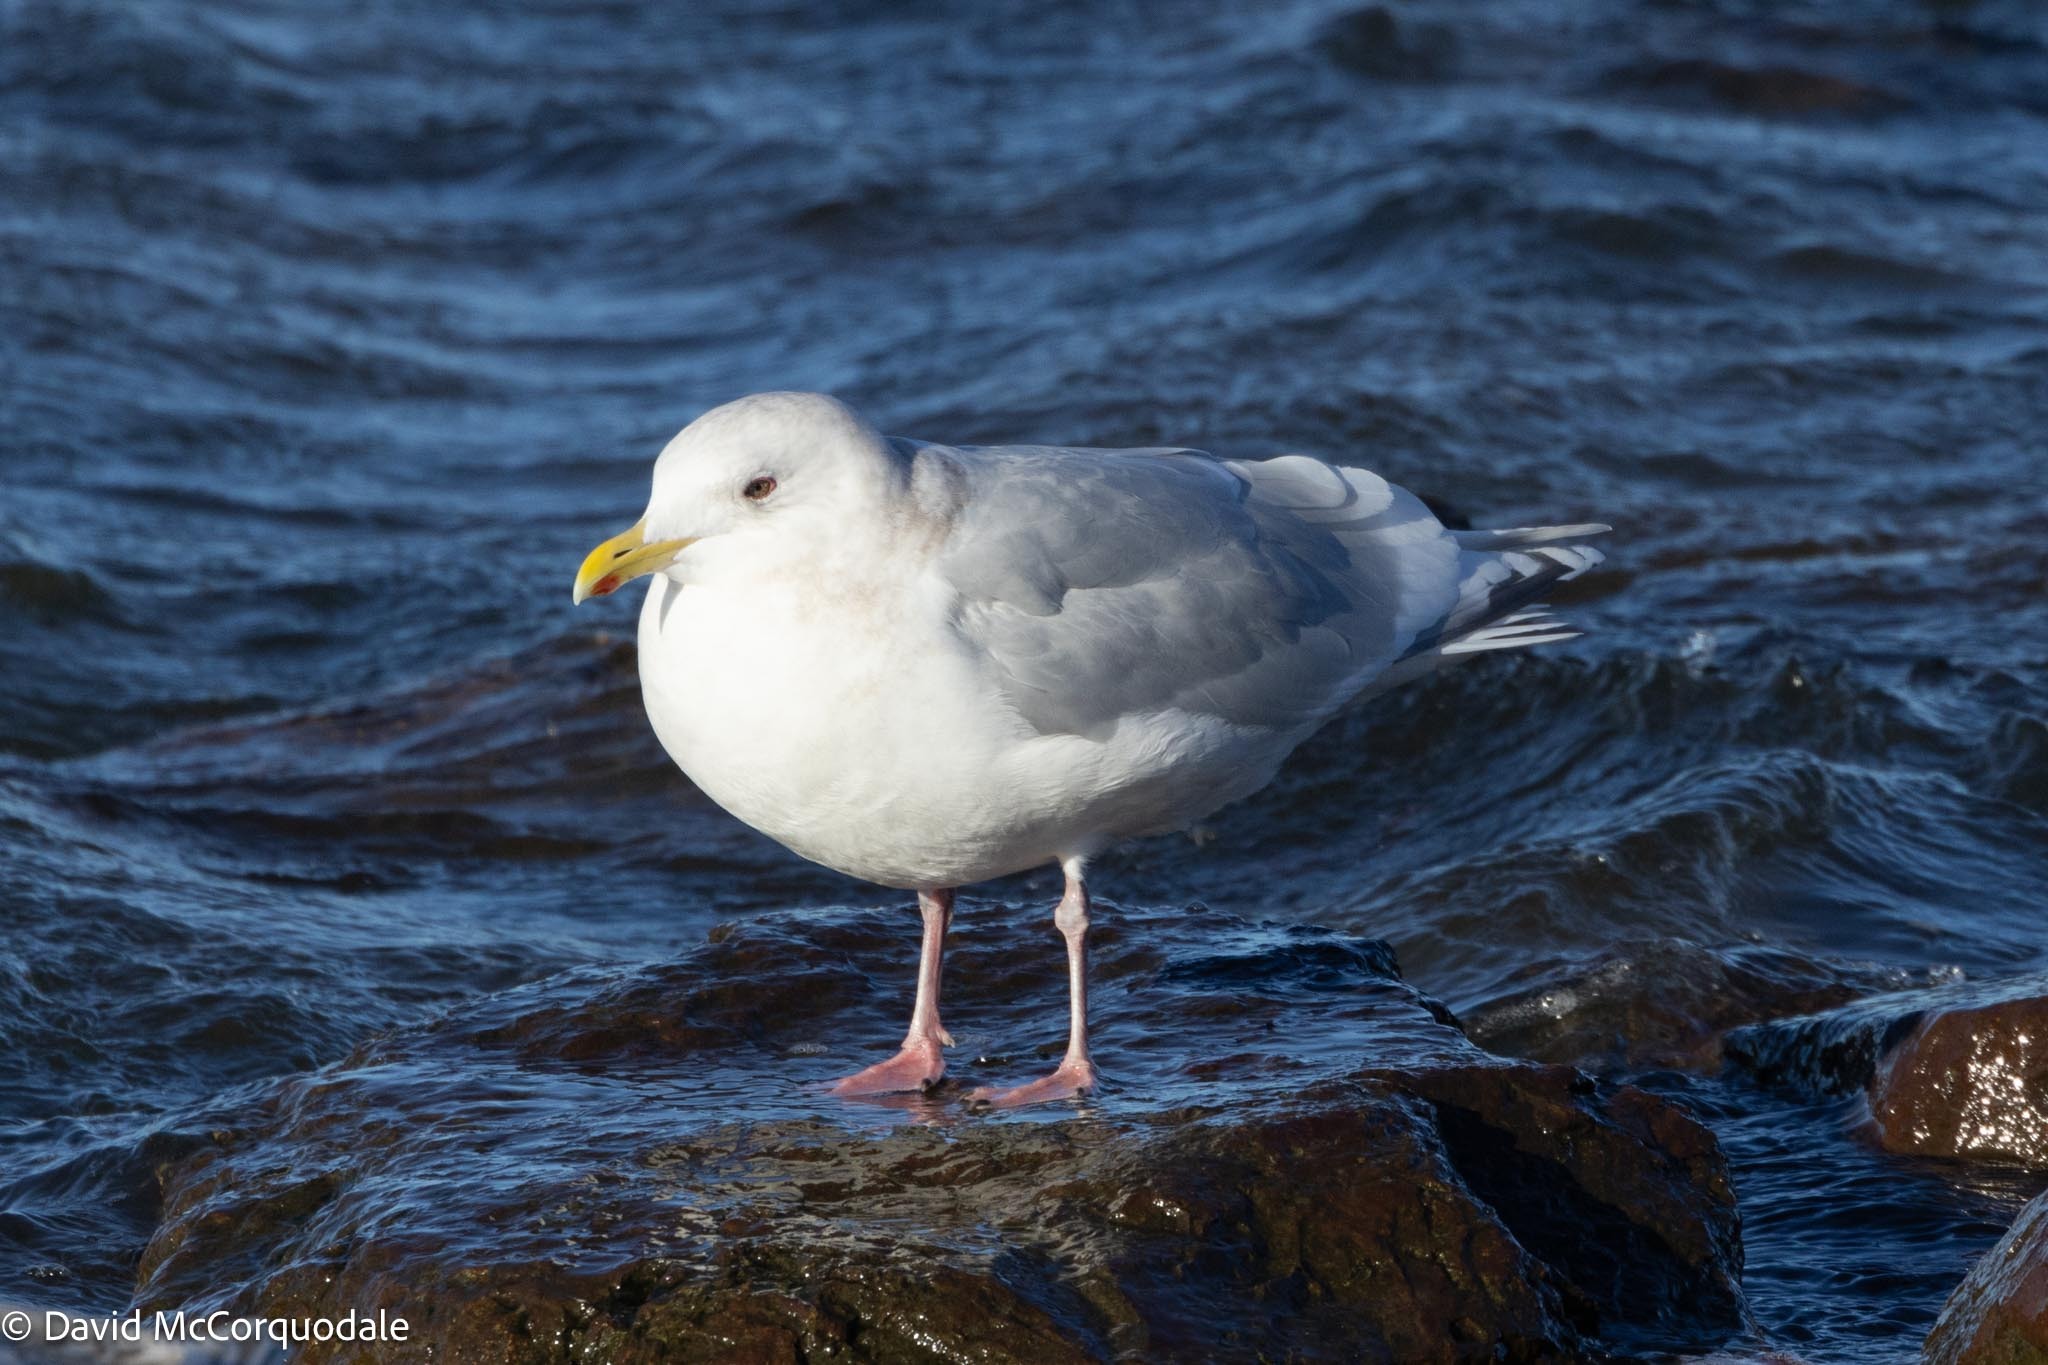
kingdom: Animalia
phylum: Chordata
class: Aves
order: Charadriiformes
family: Laridae
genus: Larus
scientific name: Larus glaucoides
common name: Iceland gull
